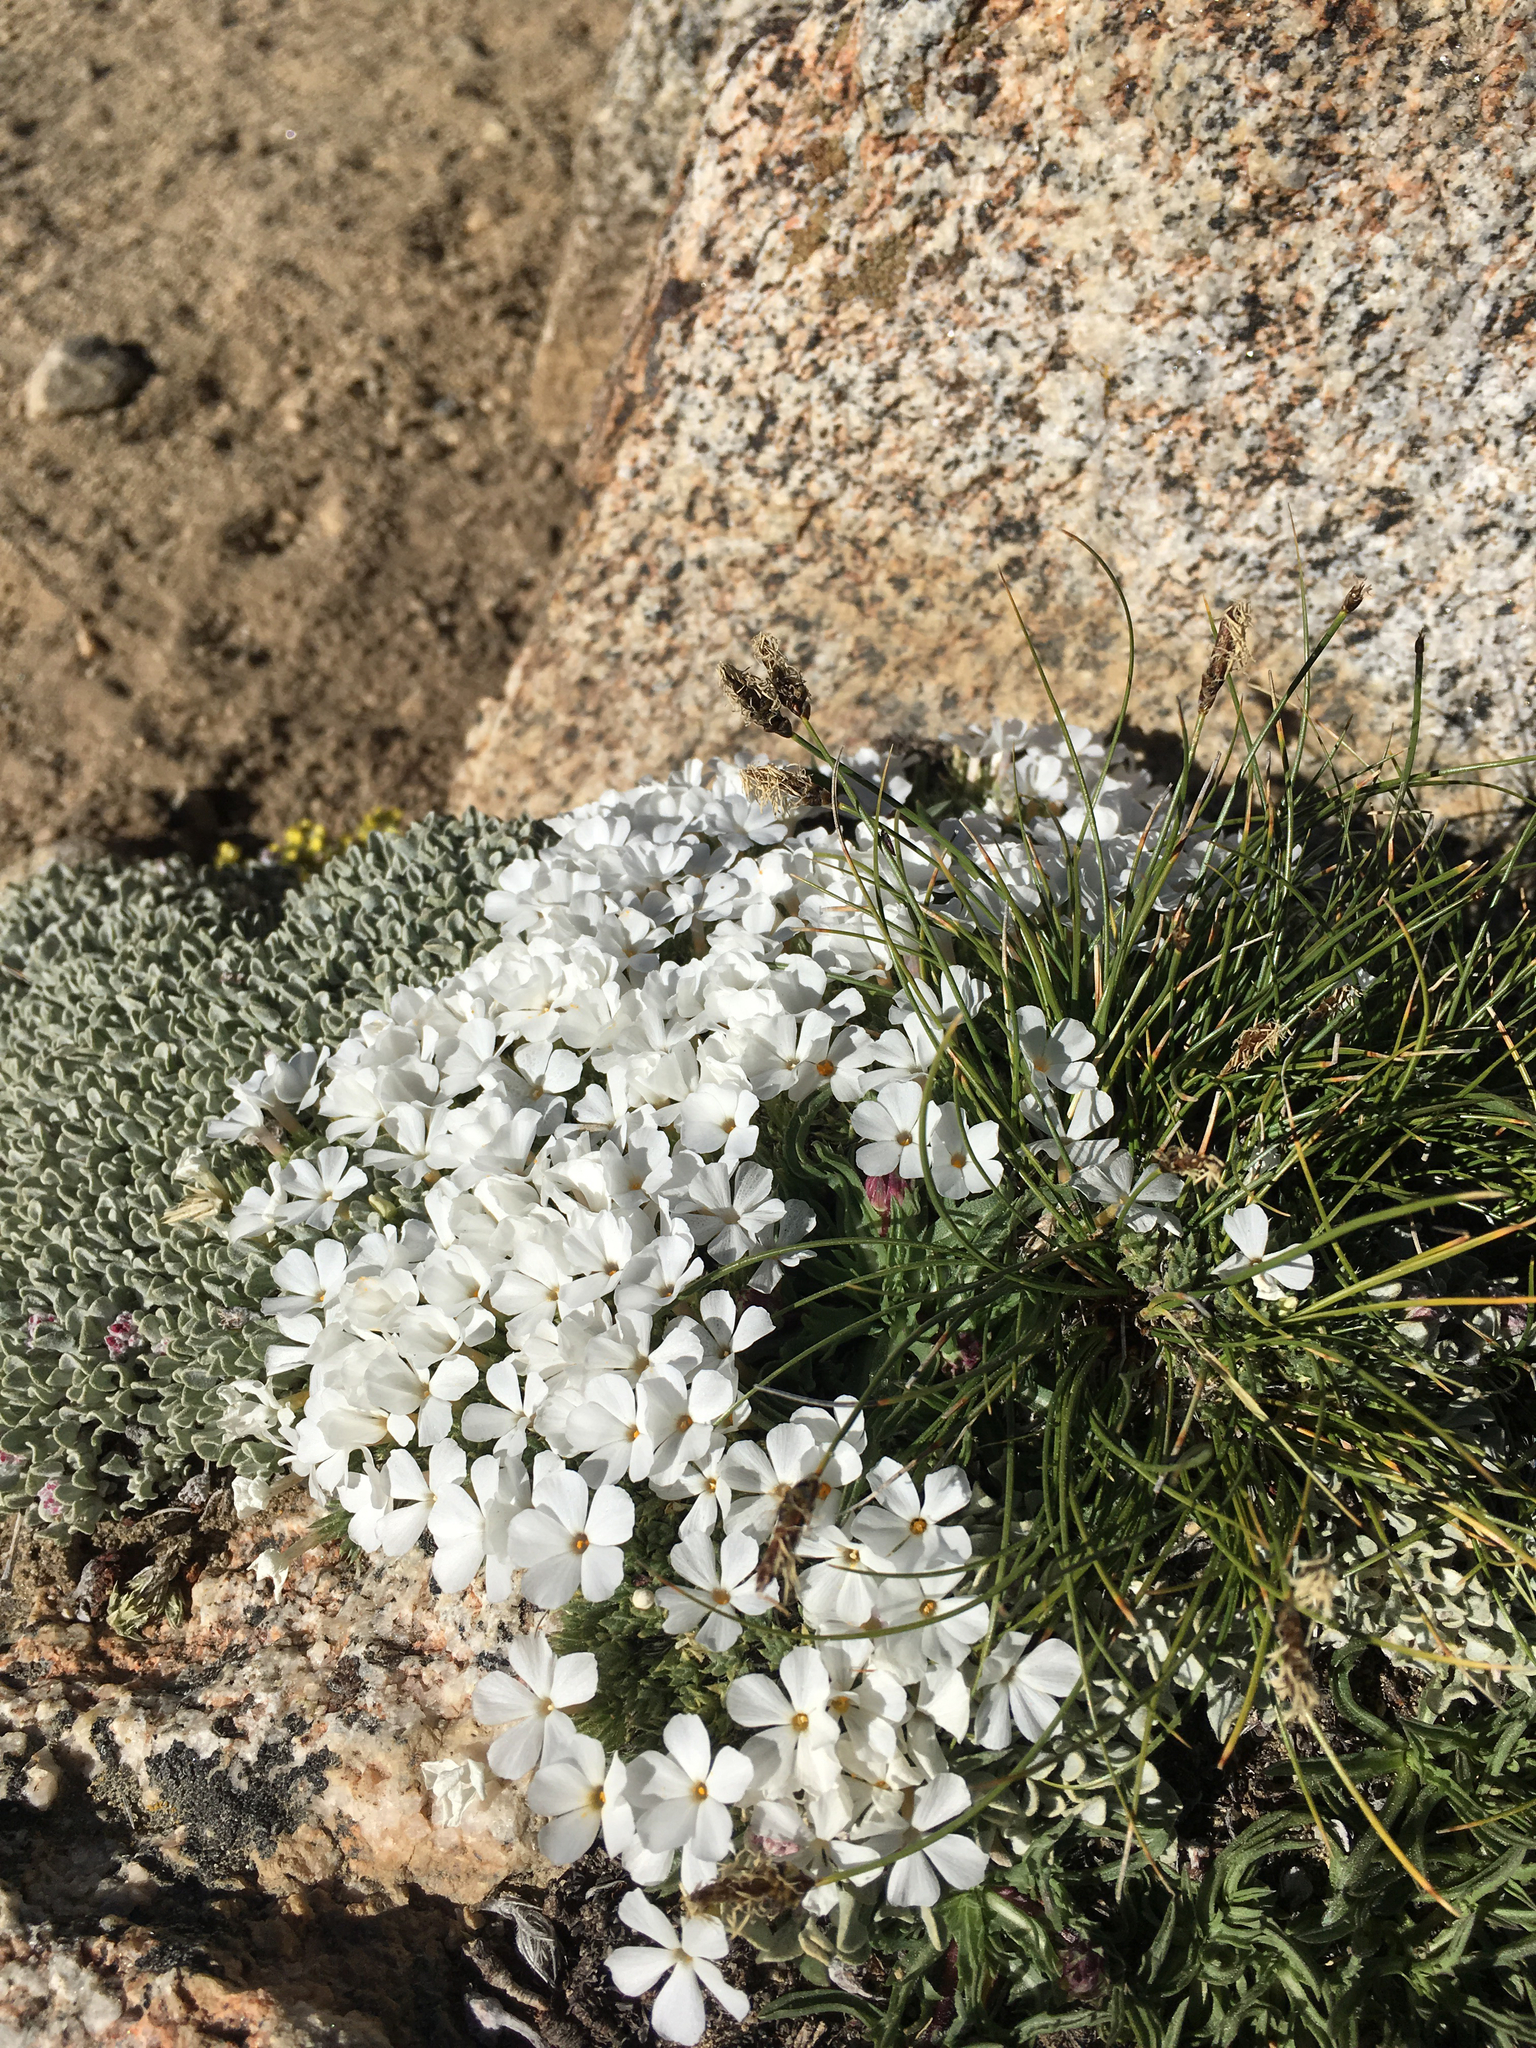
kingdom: Plantae
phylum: Tracheophyta
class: Magnoliopsida
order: Ericales
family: Polemoniaceae
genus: Phlox
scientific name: Phlox condensata
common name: Compact phlox
